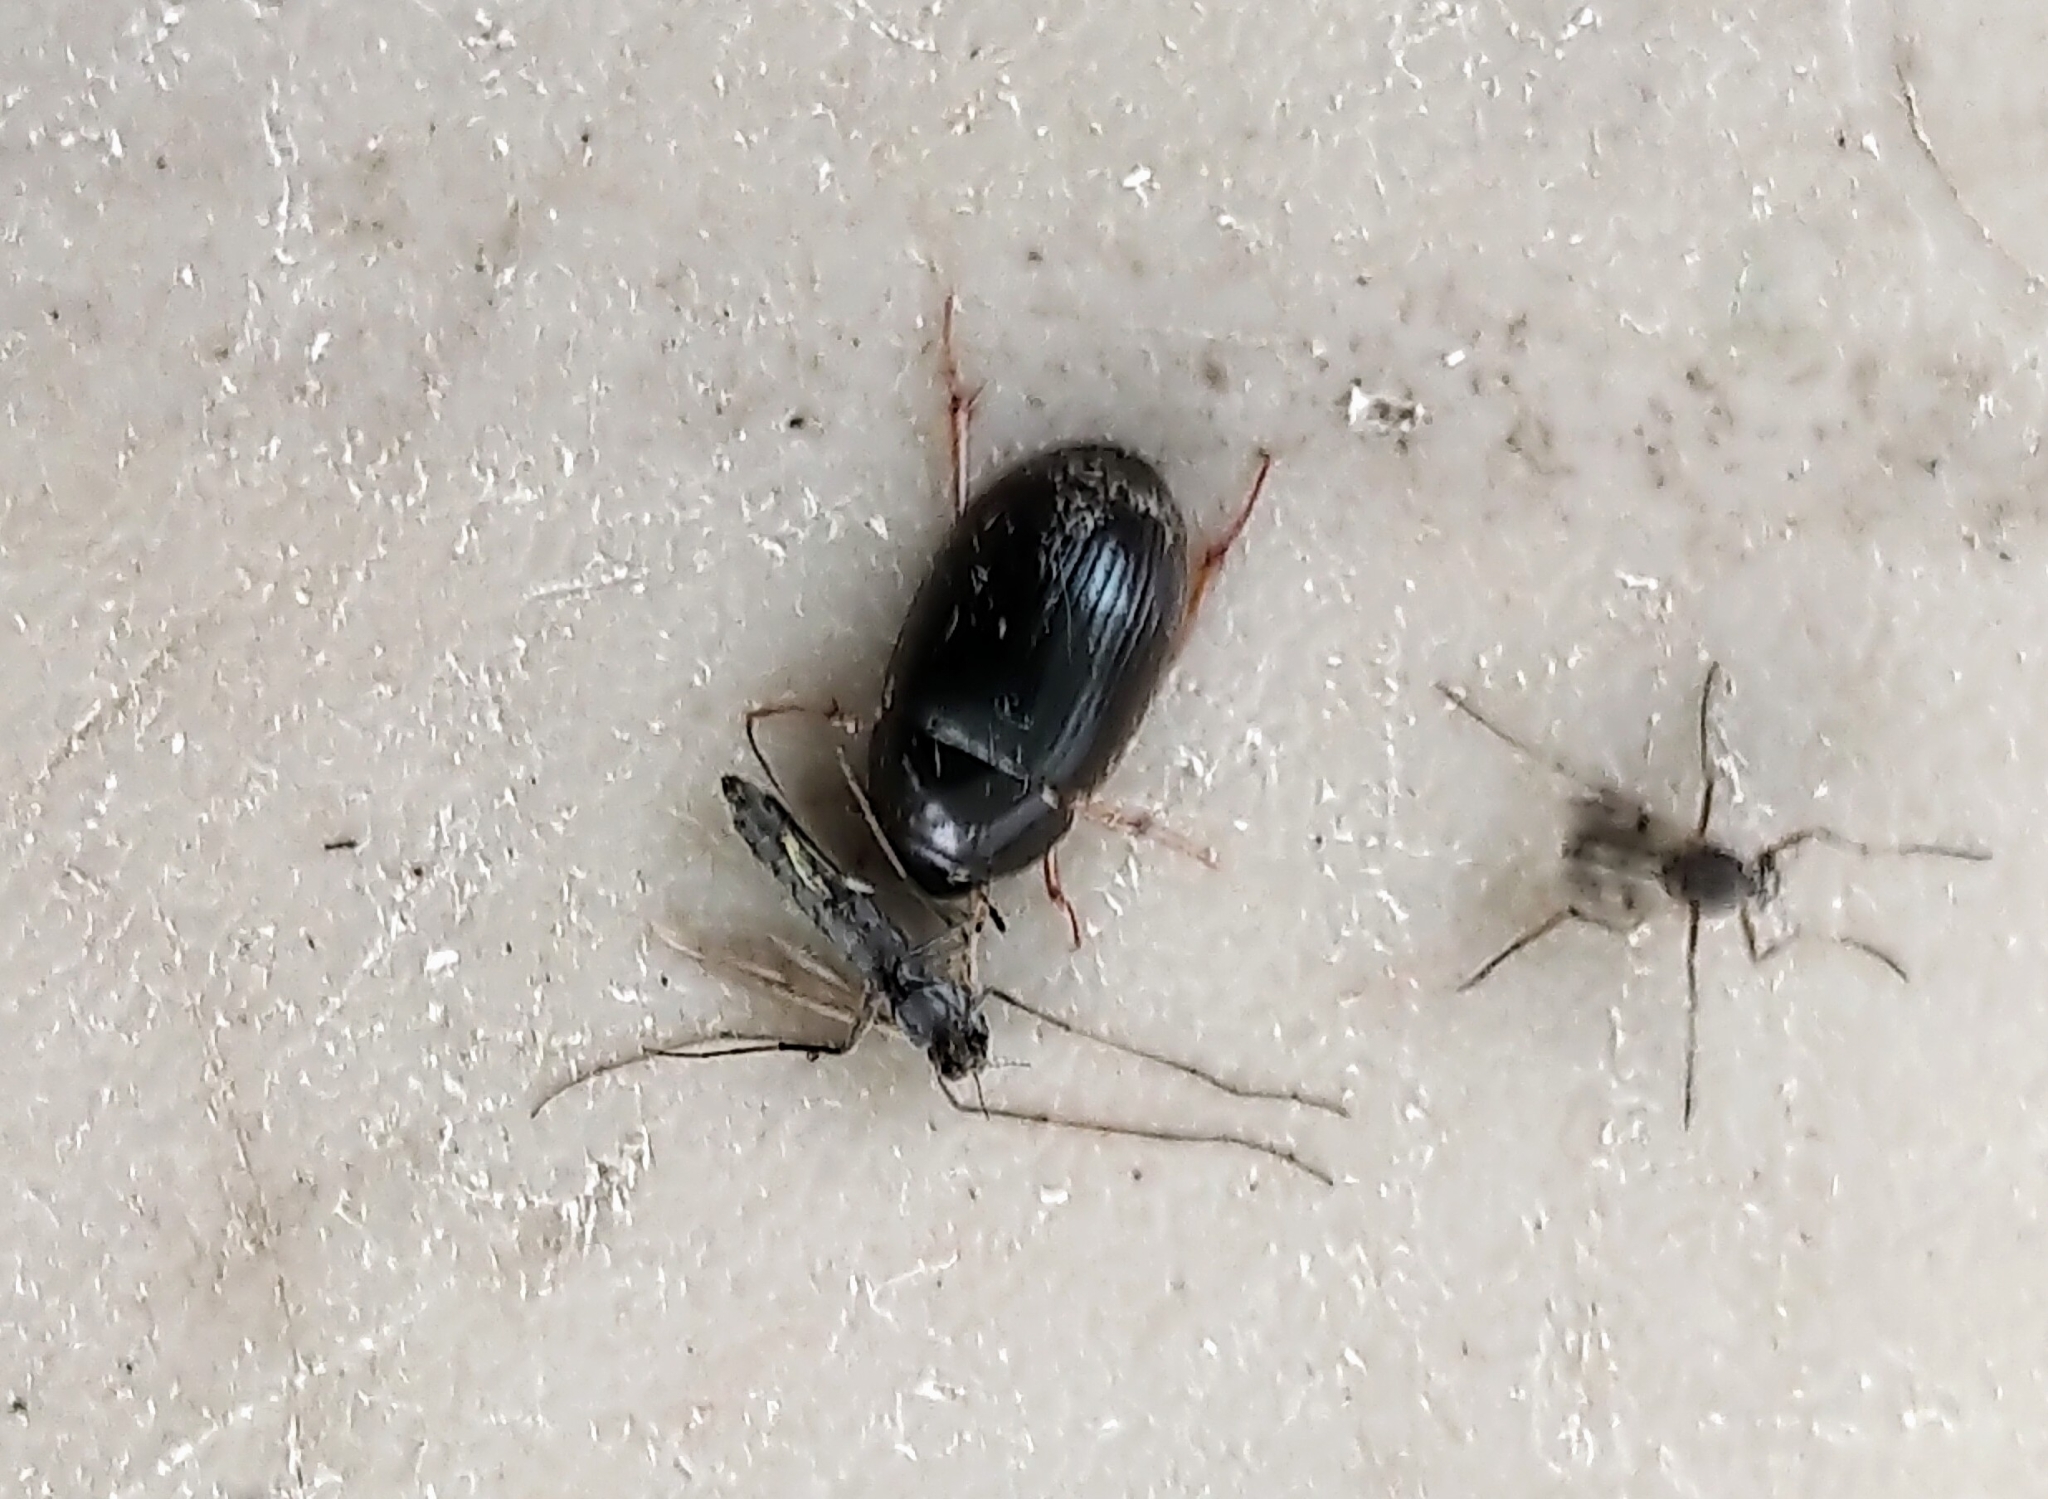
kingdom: Animalia
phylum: Arthropoda
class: Insecta
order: Coleoptera
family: Hydrophilidae
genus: Hydrobius
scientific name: Hydrobius fuscipes
